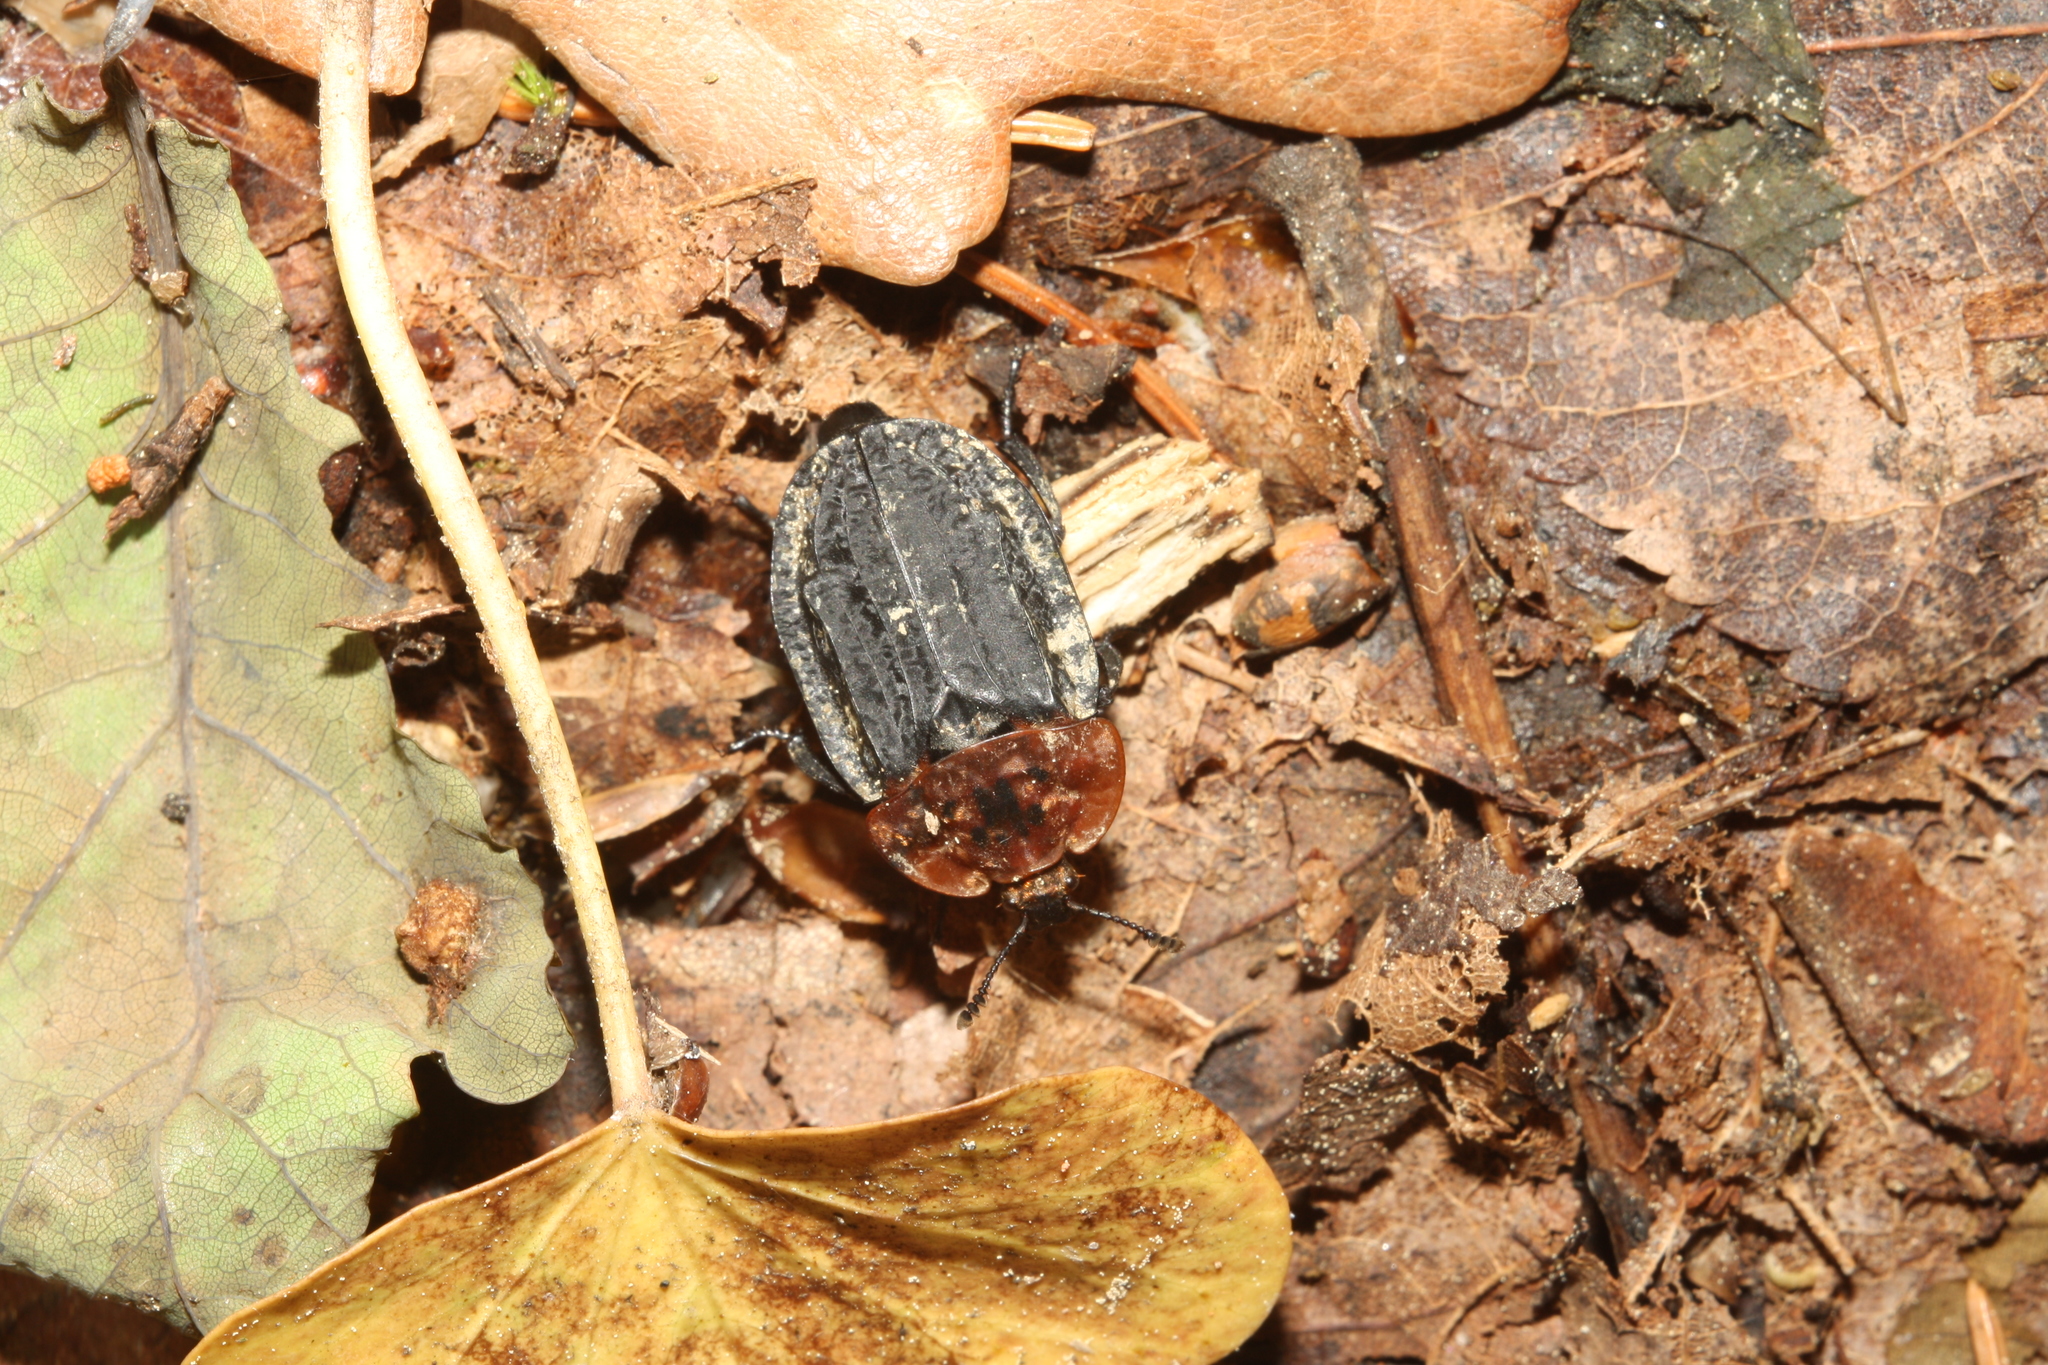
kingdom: Animalia
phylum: Arthropoda
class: Insecta
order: Coleoptera
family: Staphylinidae
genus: Oiceoptoma
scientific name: Oiceoptoma thoracicum
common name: Red-breasted carrion beetle
